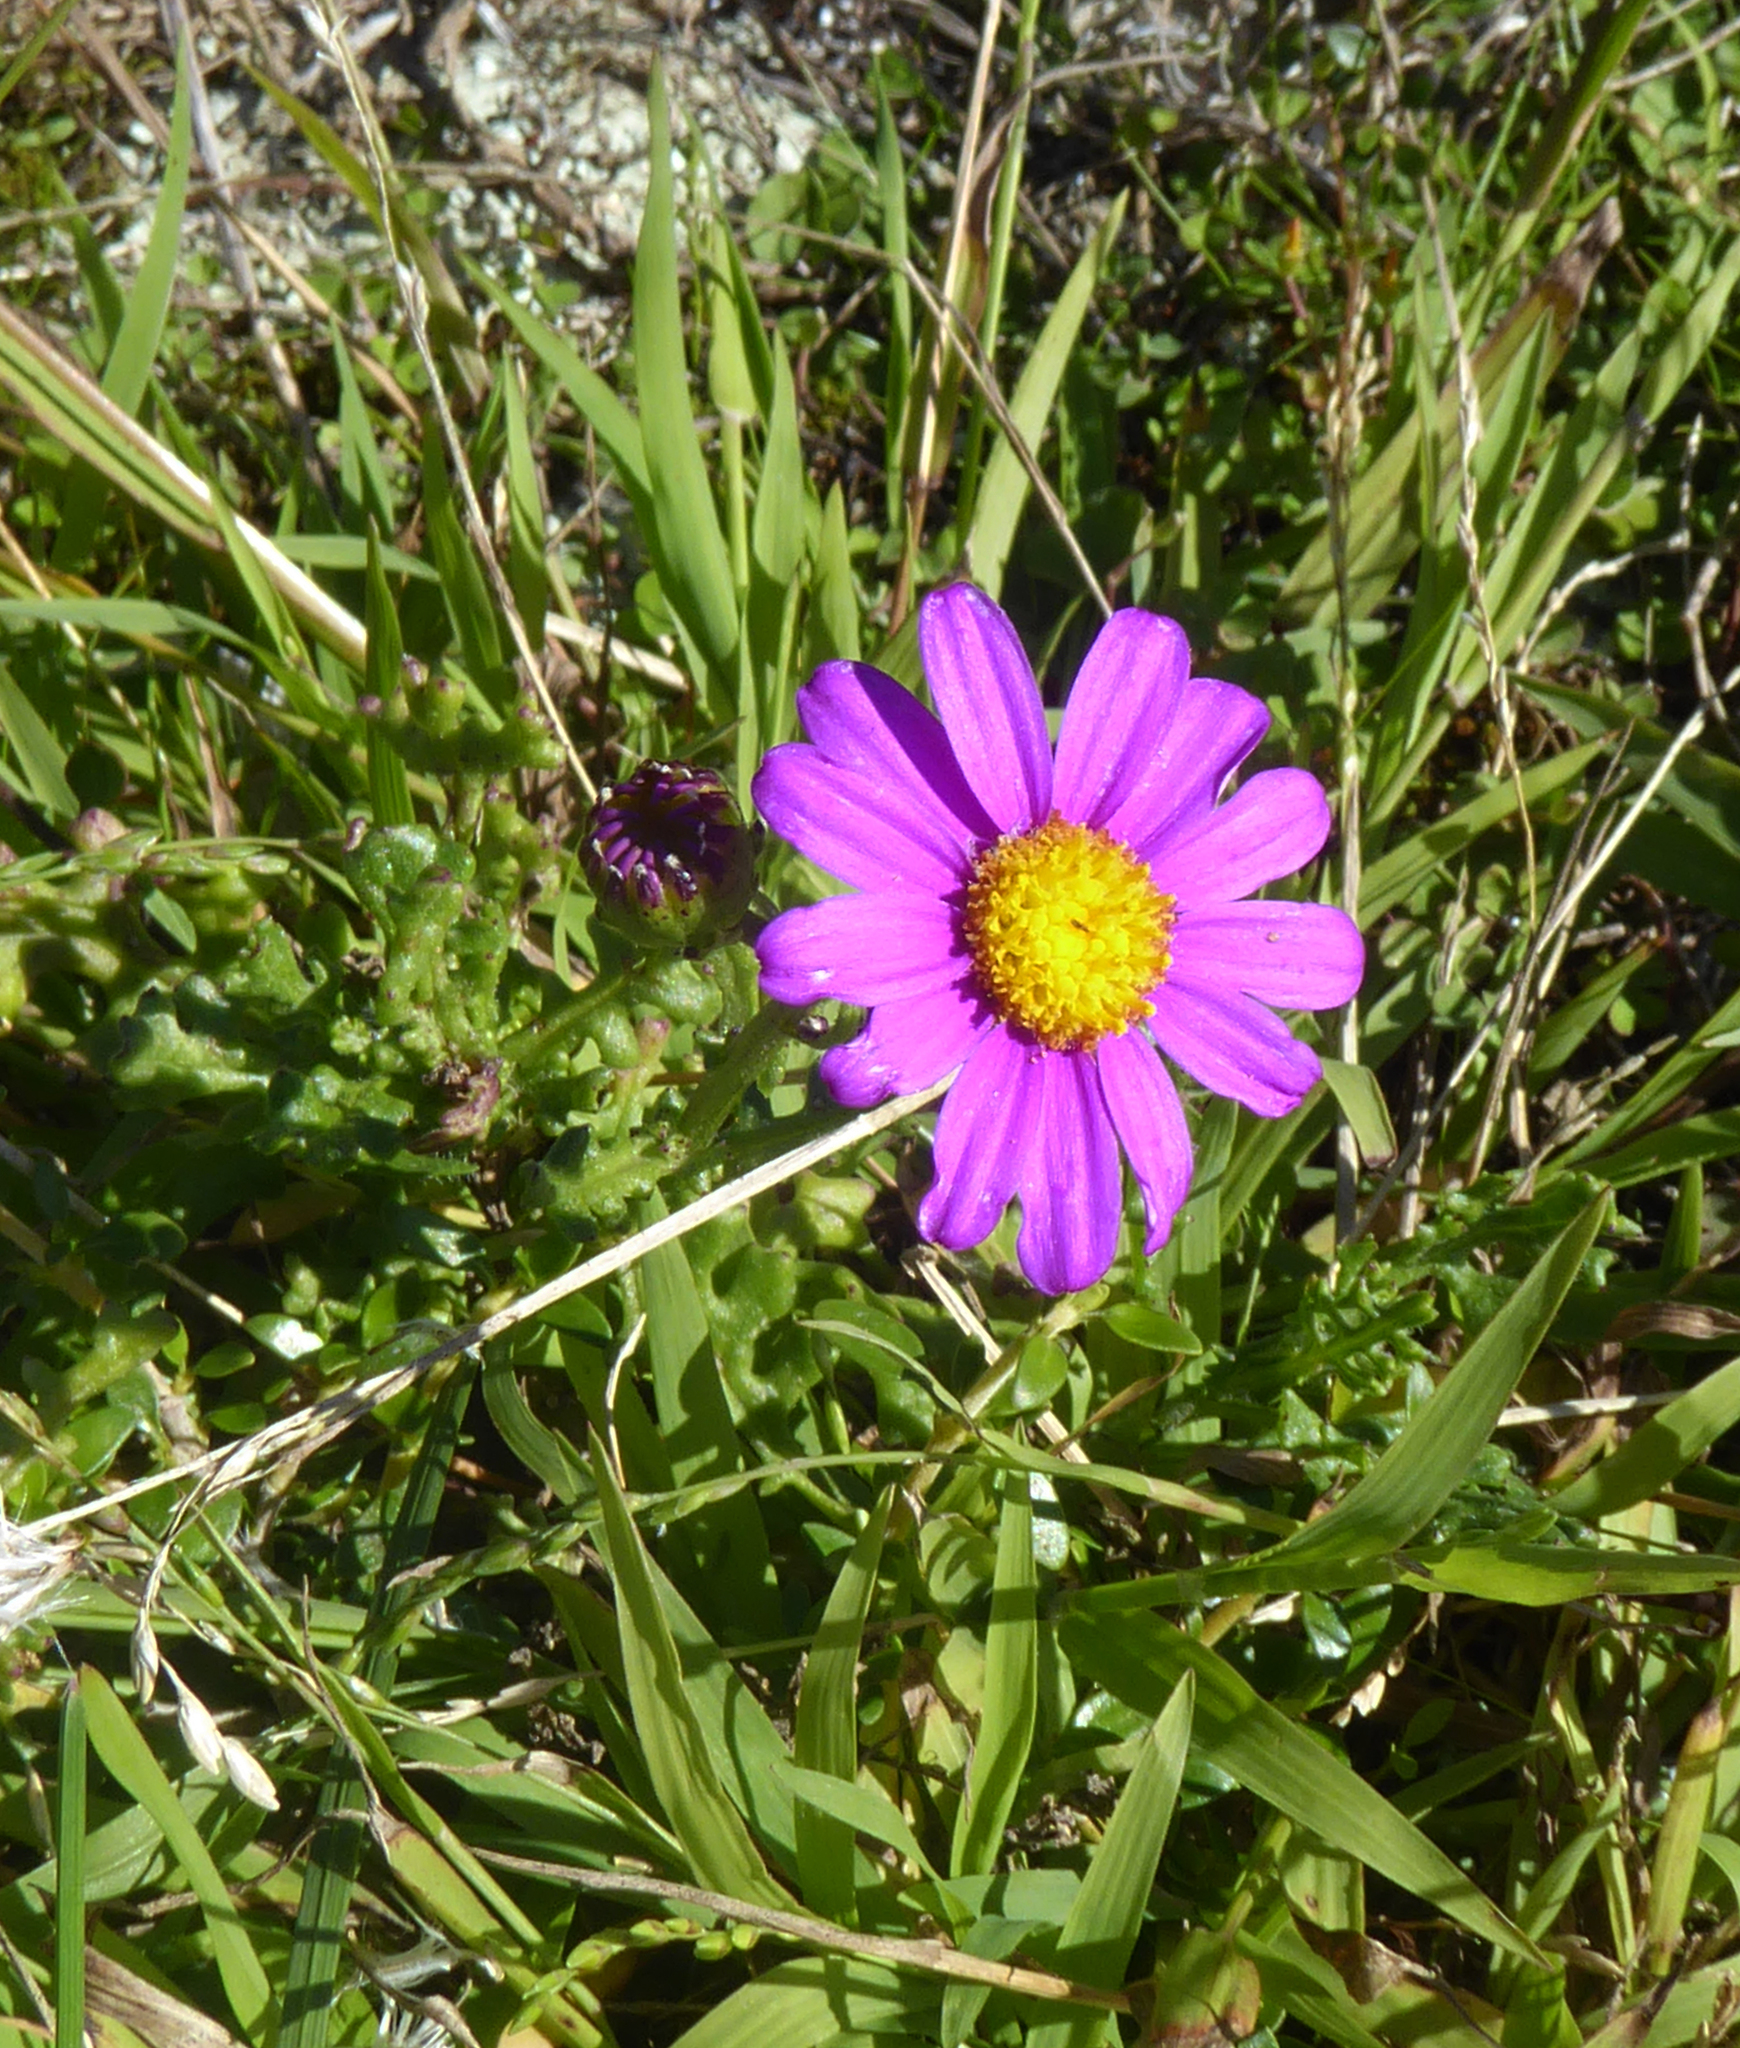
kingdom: Plantae
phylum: Tracheophyta
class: Magnoliopsida
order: Asterales
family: Asteraceae
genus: Senecio
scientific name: Senecio elegans
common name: Purple groundsel
